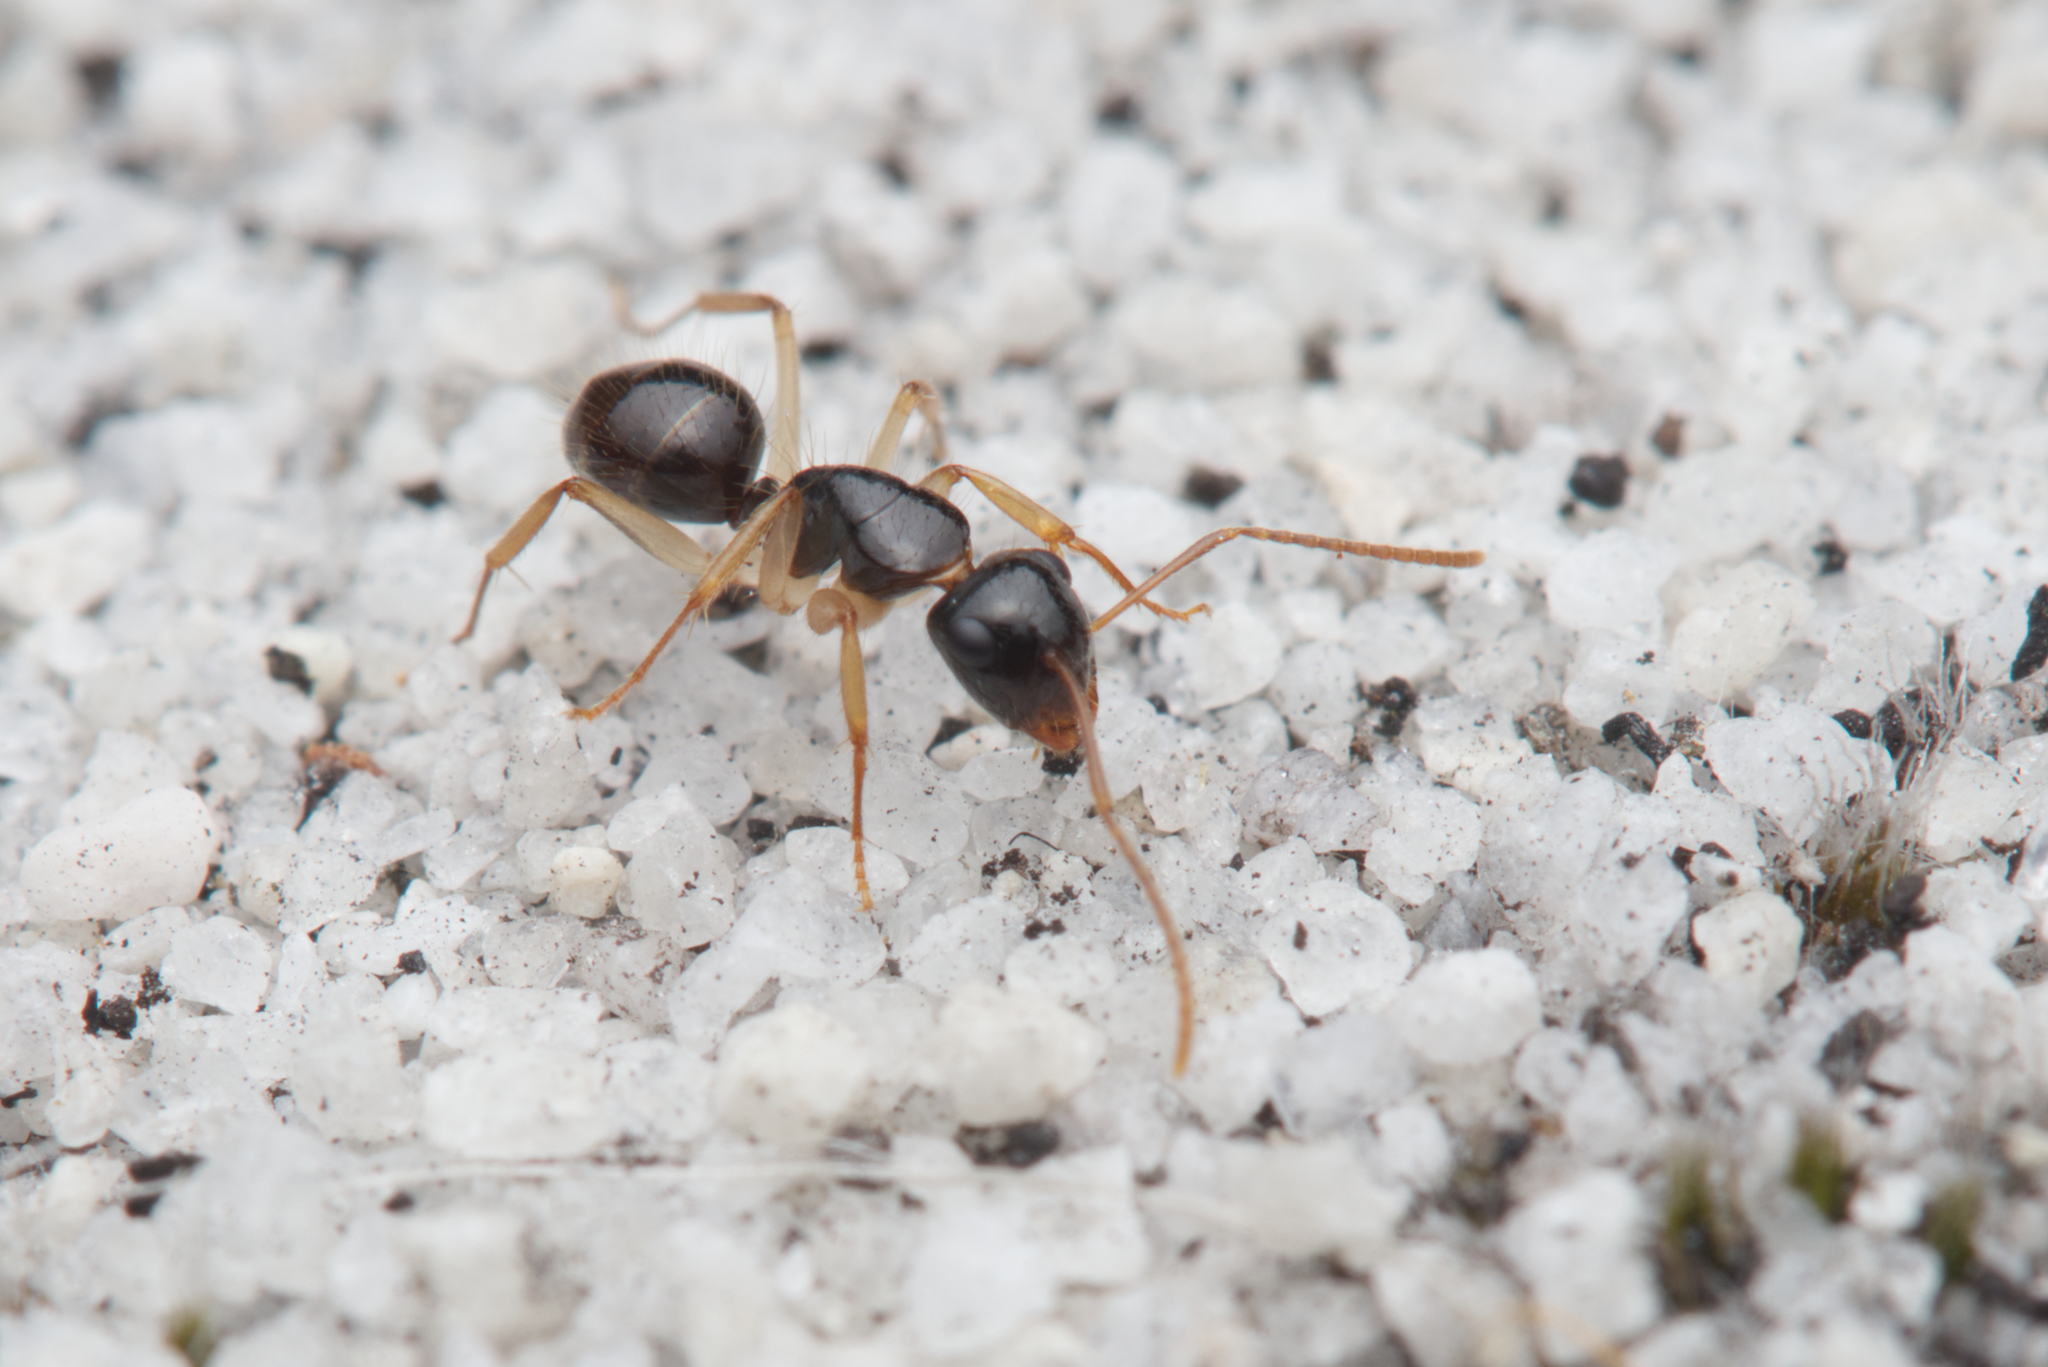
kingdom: Animalia
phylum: Arthropoda
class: Insecta
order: Hymenoptera
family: Formicidae
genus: Camponotus
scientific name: Camponotus lownei
